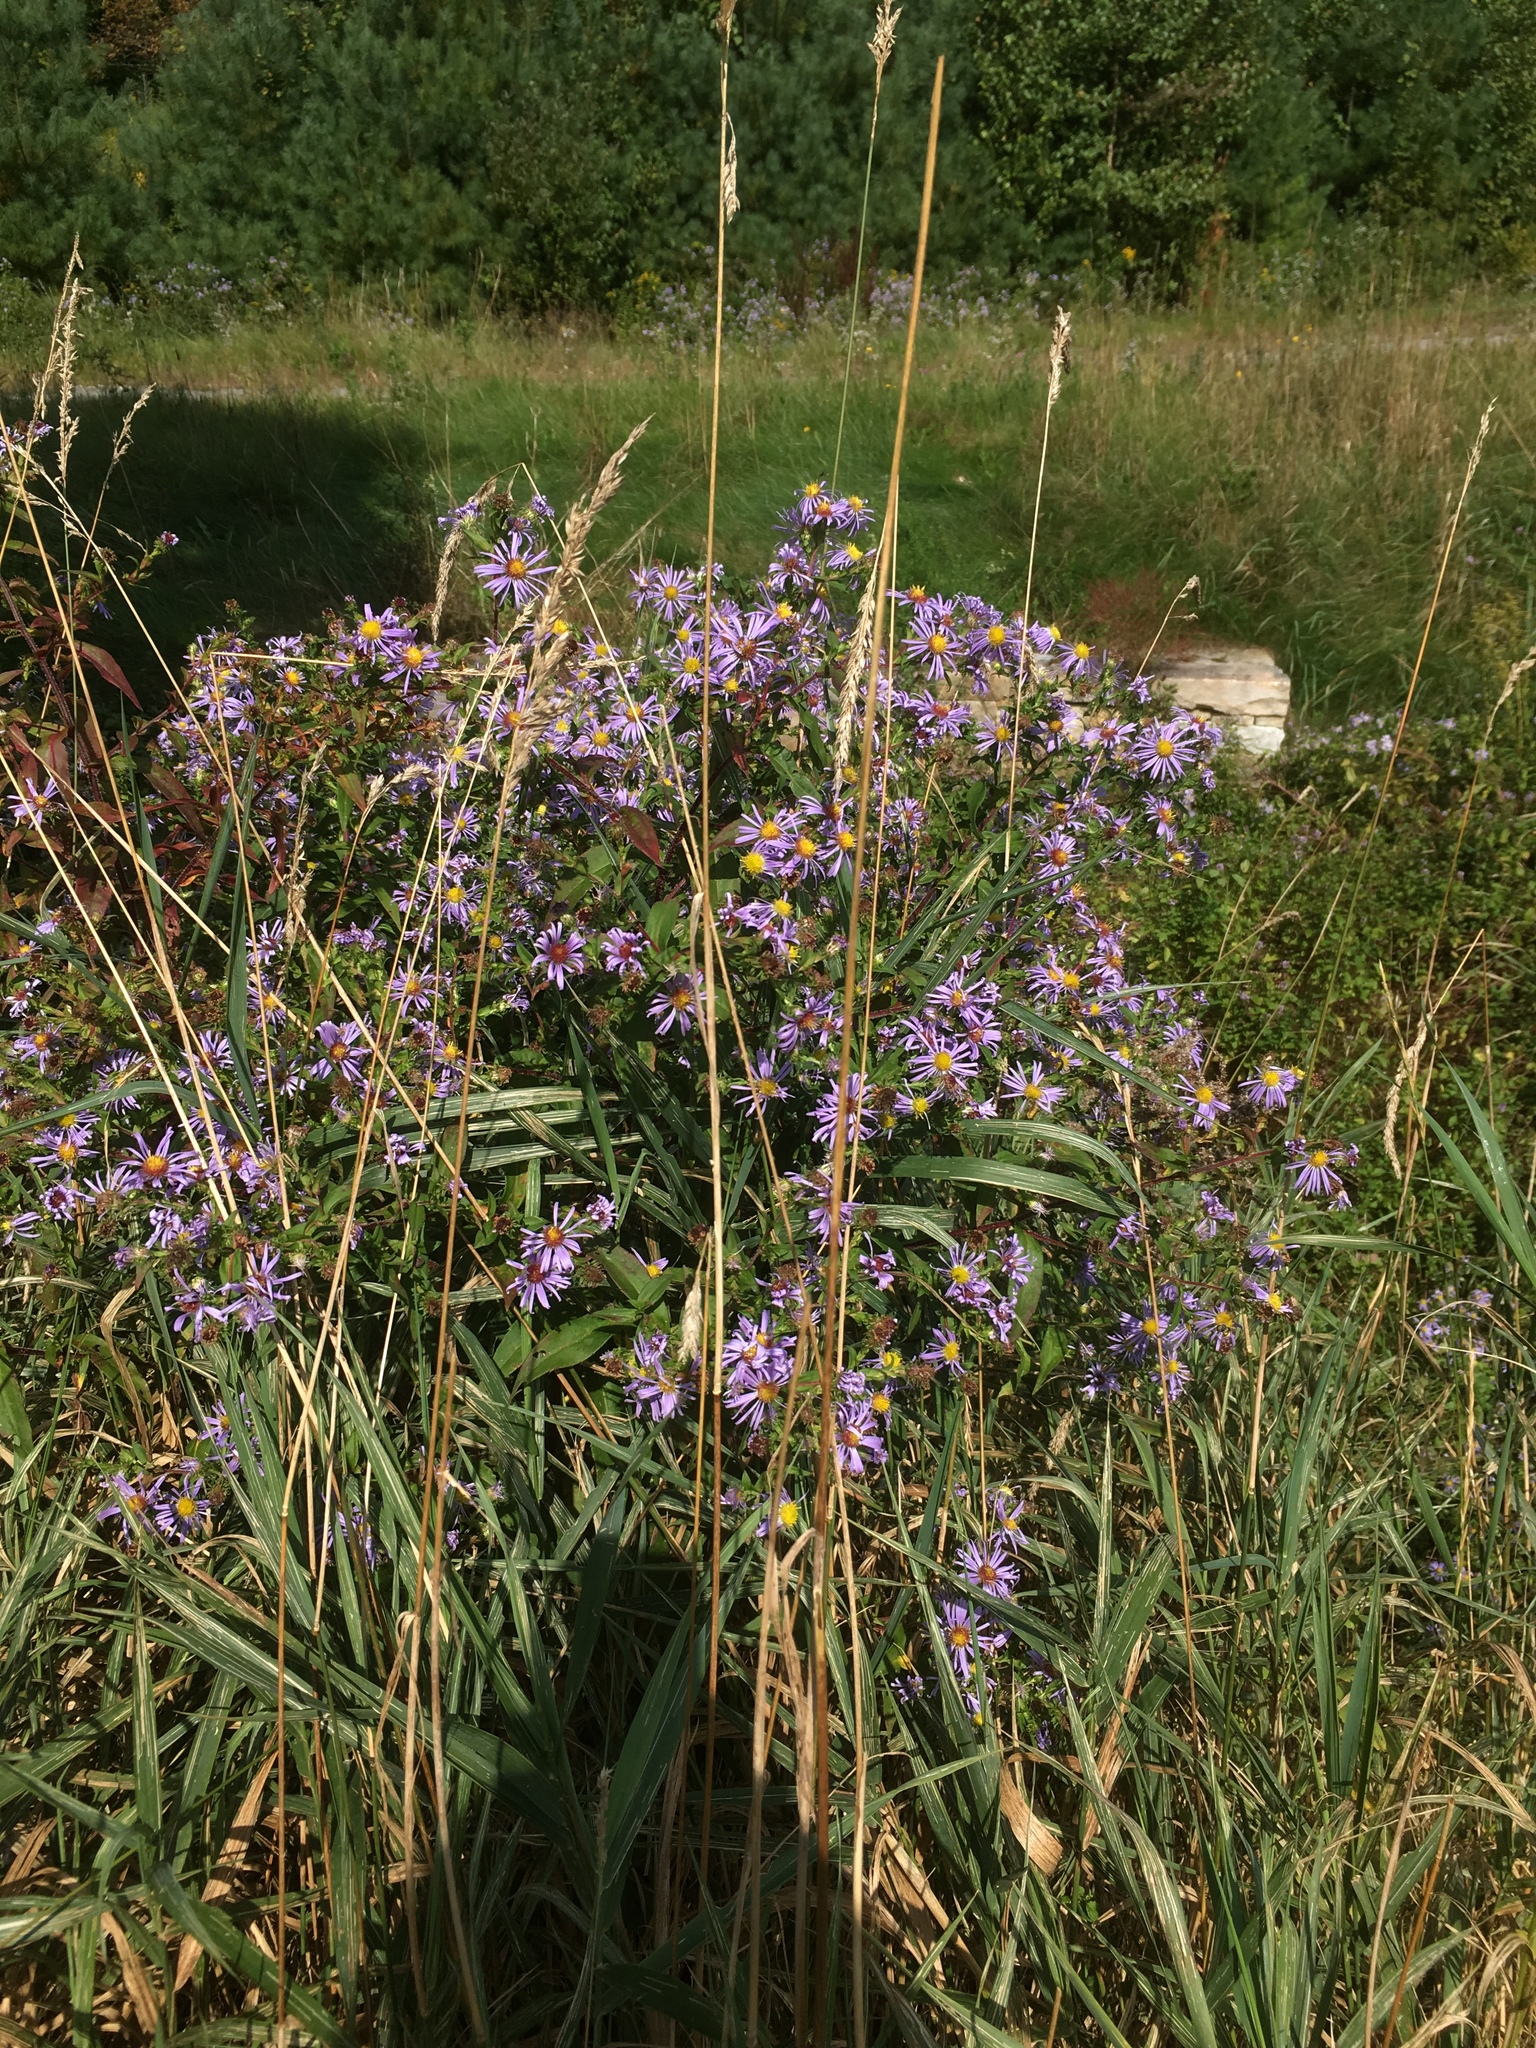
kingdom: Plantae
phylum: Tracheophyta
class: Magnoliopsida
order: Asterales
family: Asteraceae
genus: Symphyotrichum
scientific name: Symphyotrichum puniceum
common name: Bog aster
